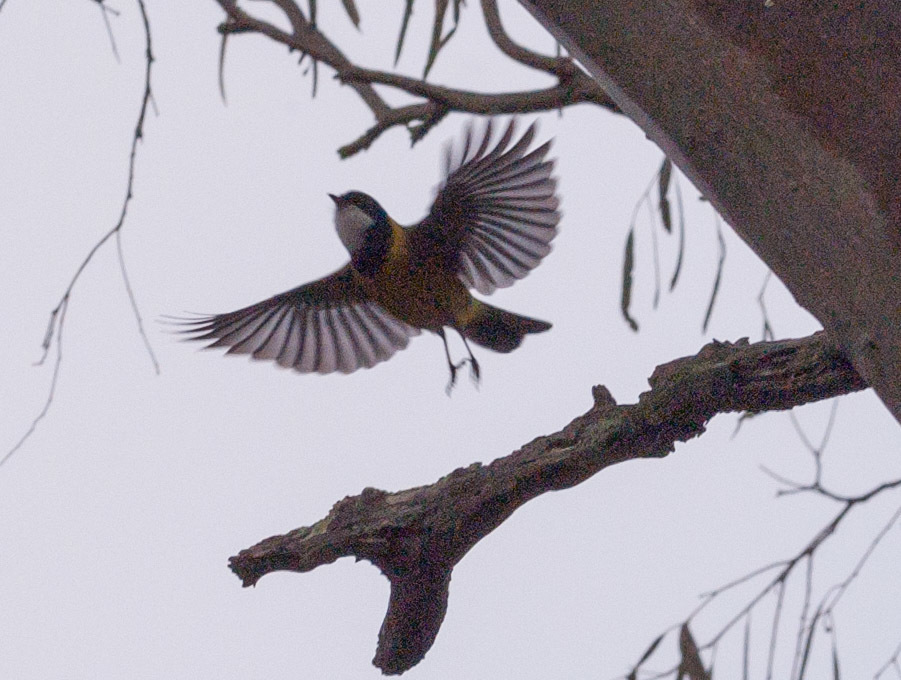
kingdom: Animalia
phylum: Chordata
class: Aves
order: Passeriformes
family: Pachycephalidae
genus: Pachycephala
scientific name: Pachycephala fuliginosa
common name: Western whistler
